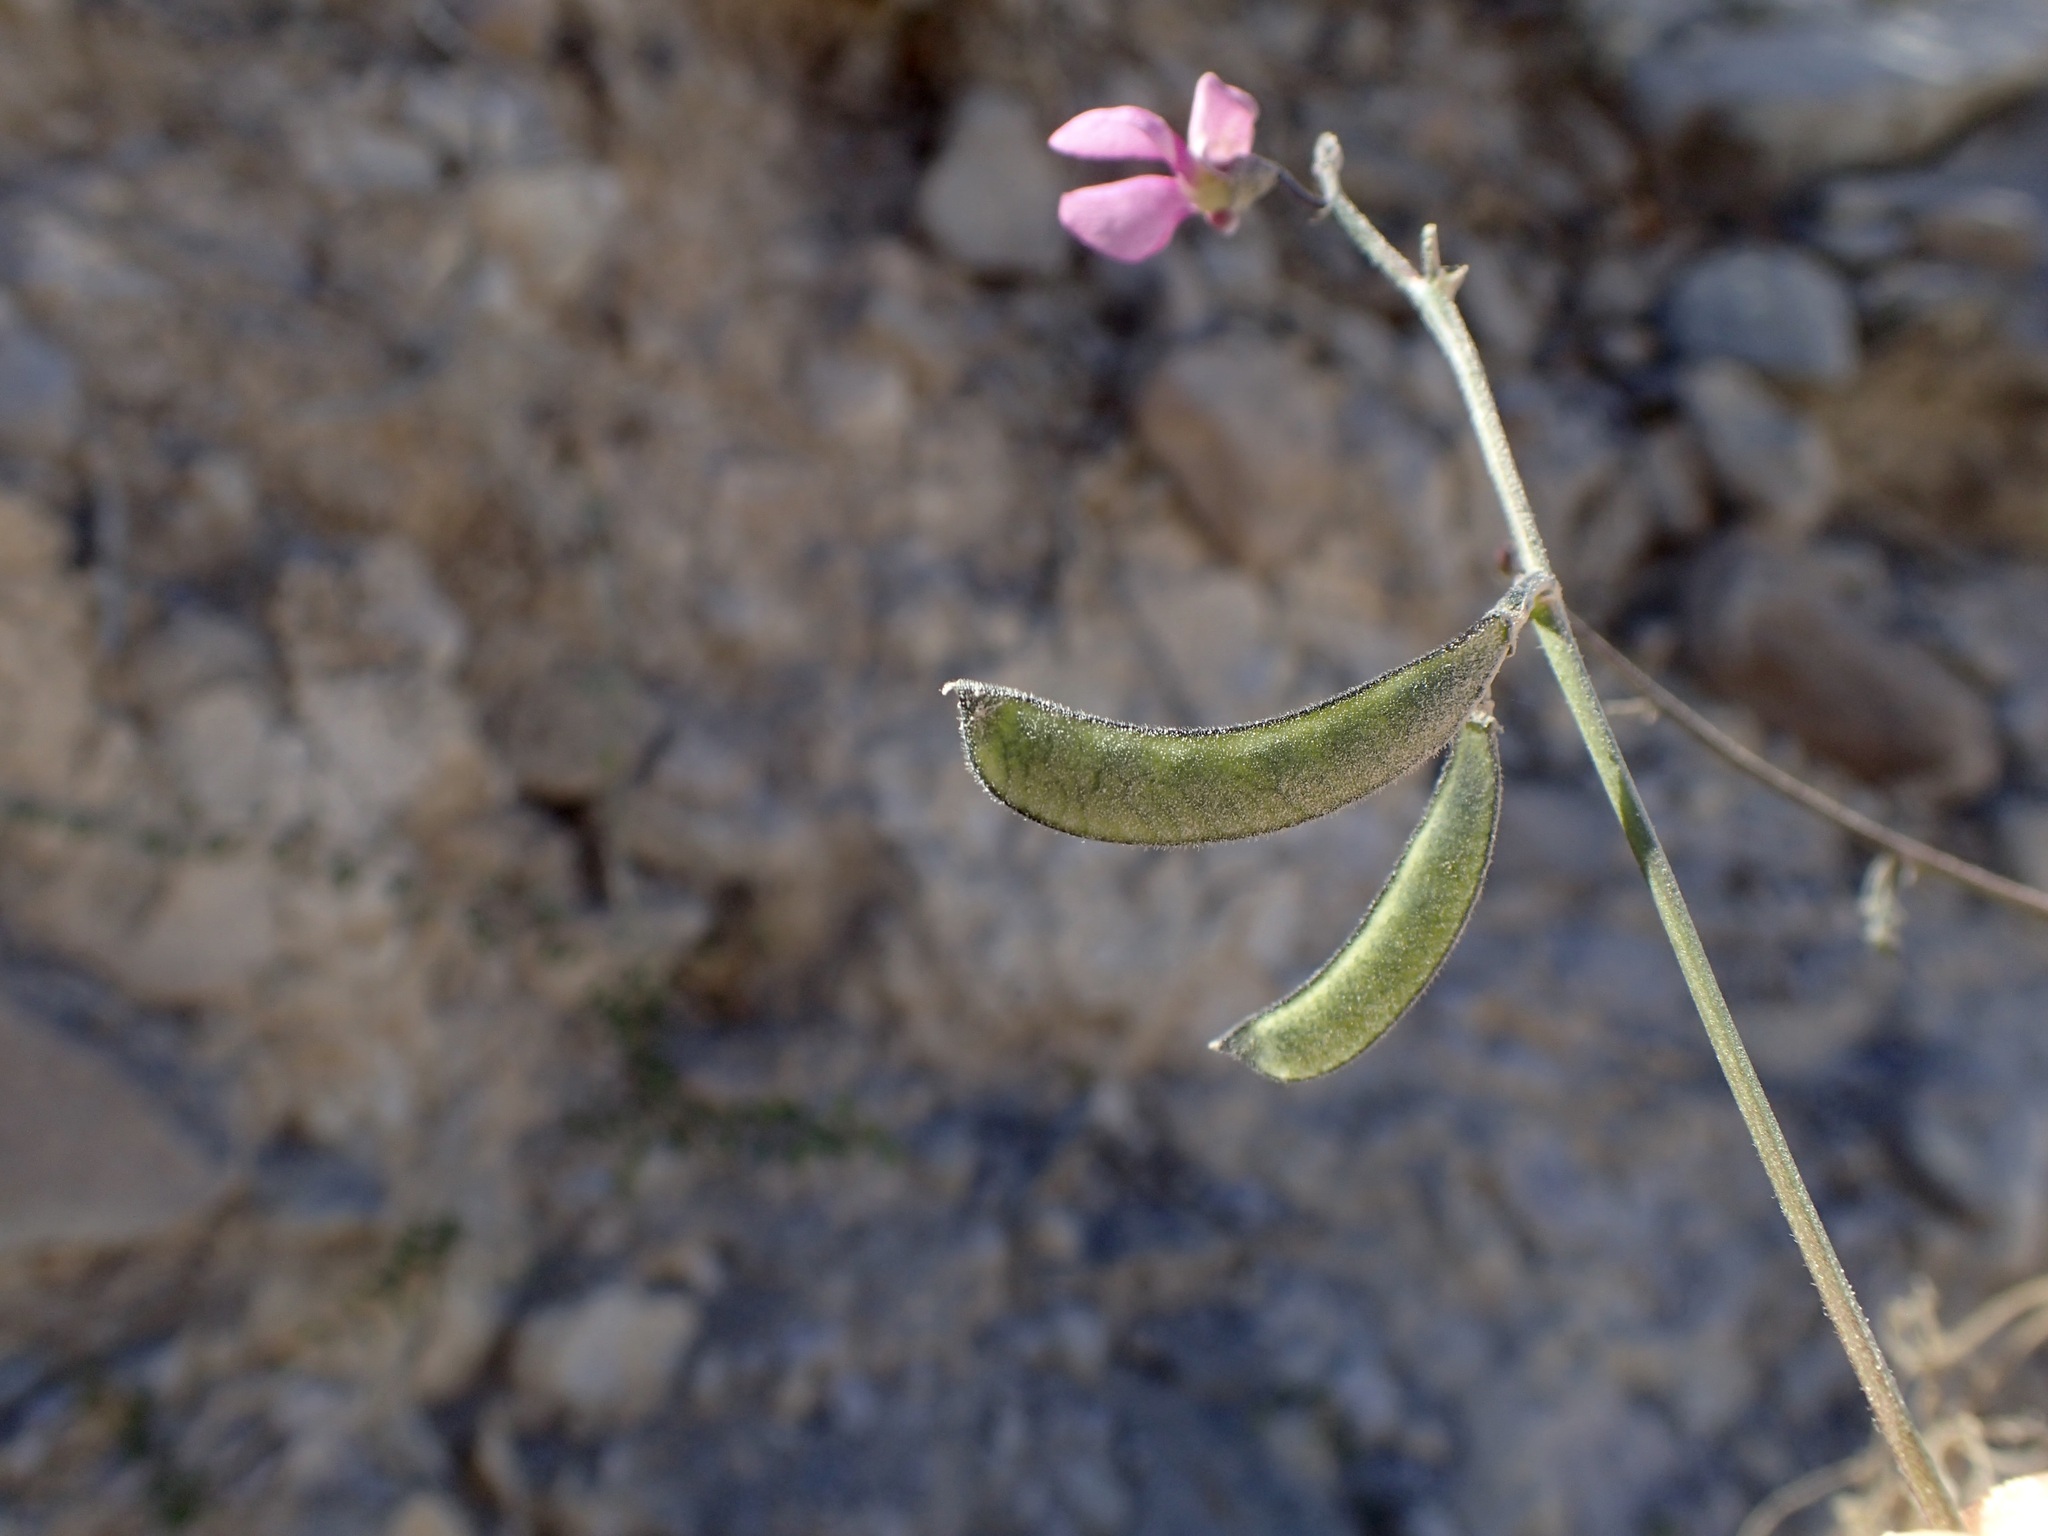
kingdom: Plantae
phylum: Tracheophyta
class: Magnoliopsida
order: Fabales
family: Fabaceae
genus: Phaseolus
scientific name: Phaseolus filiformis
